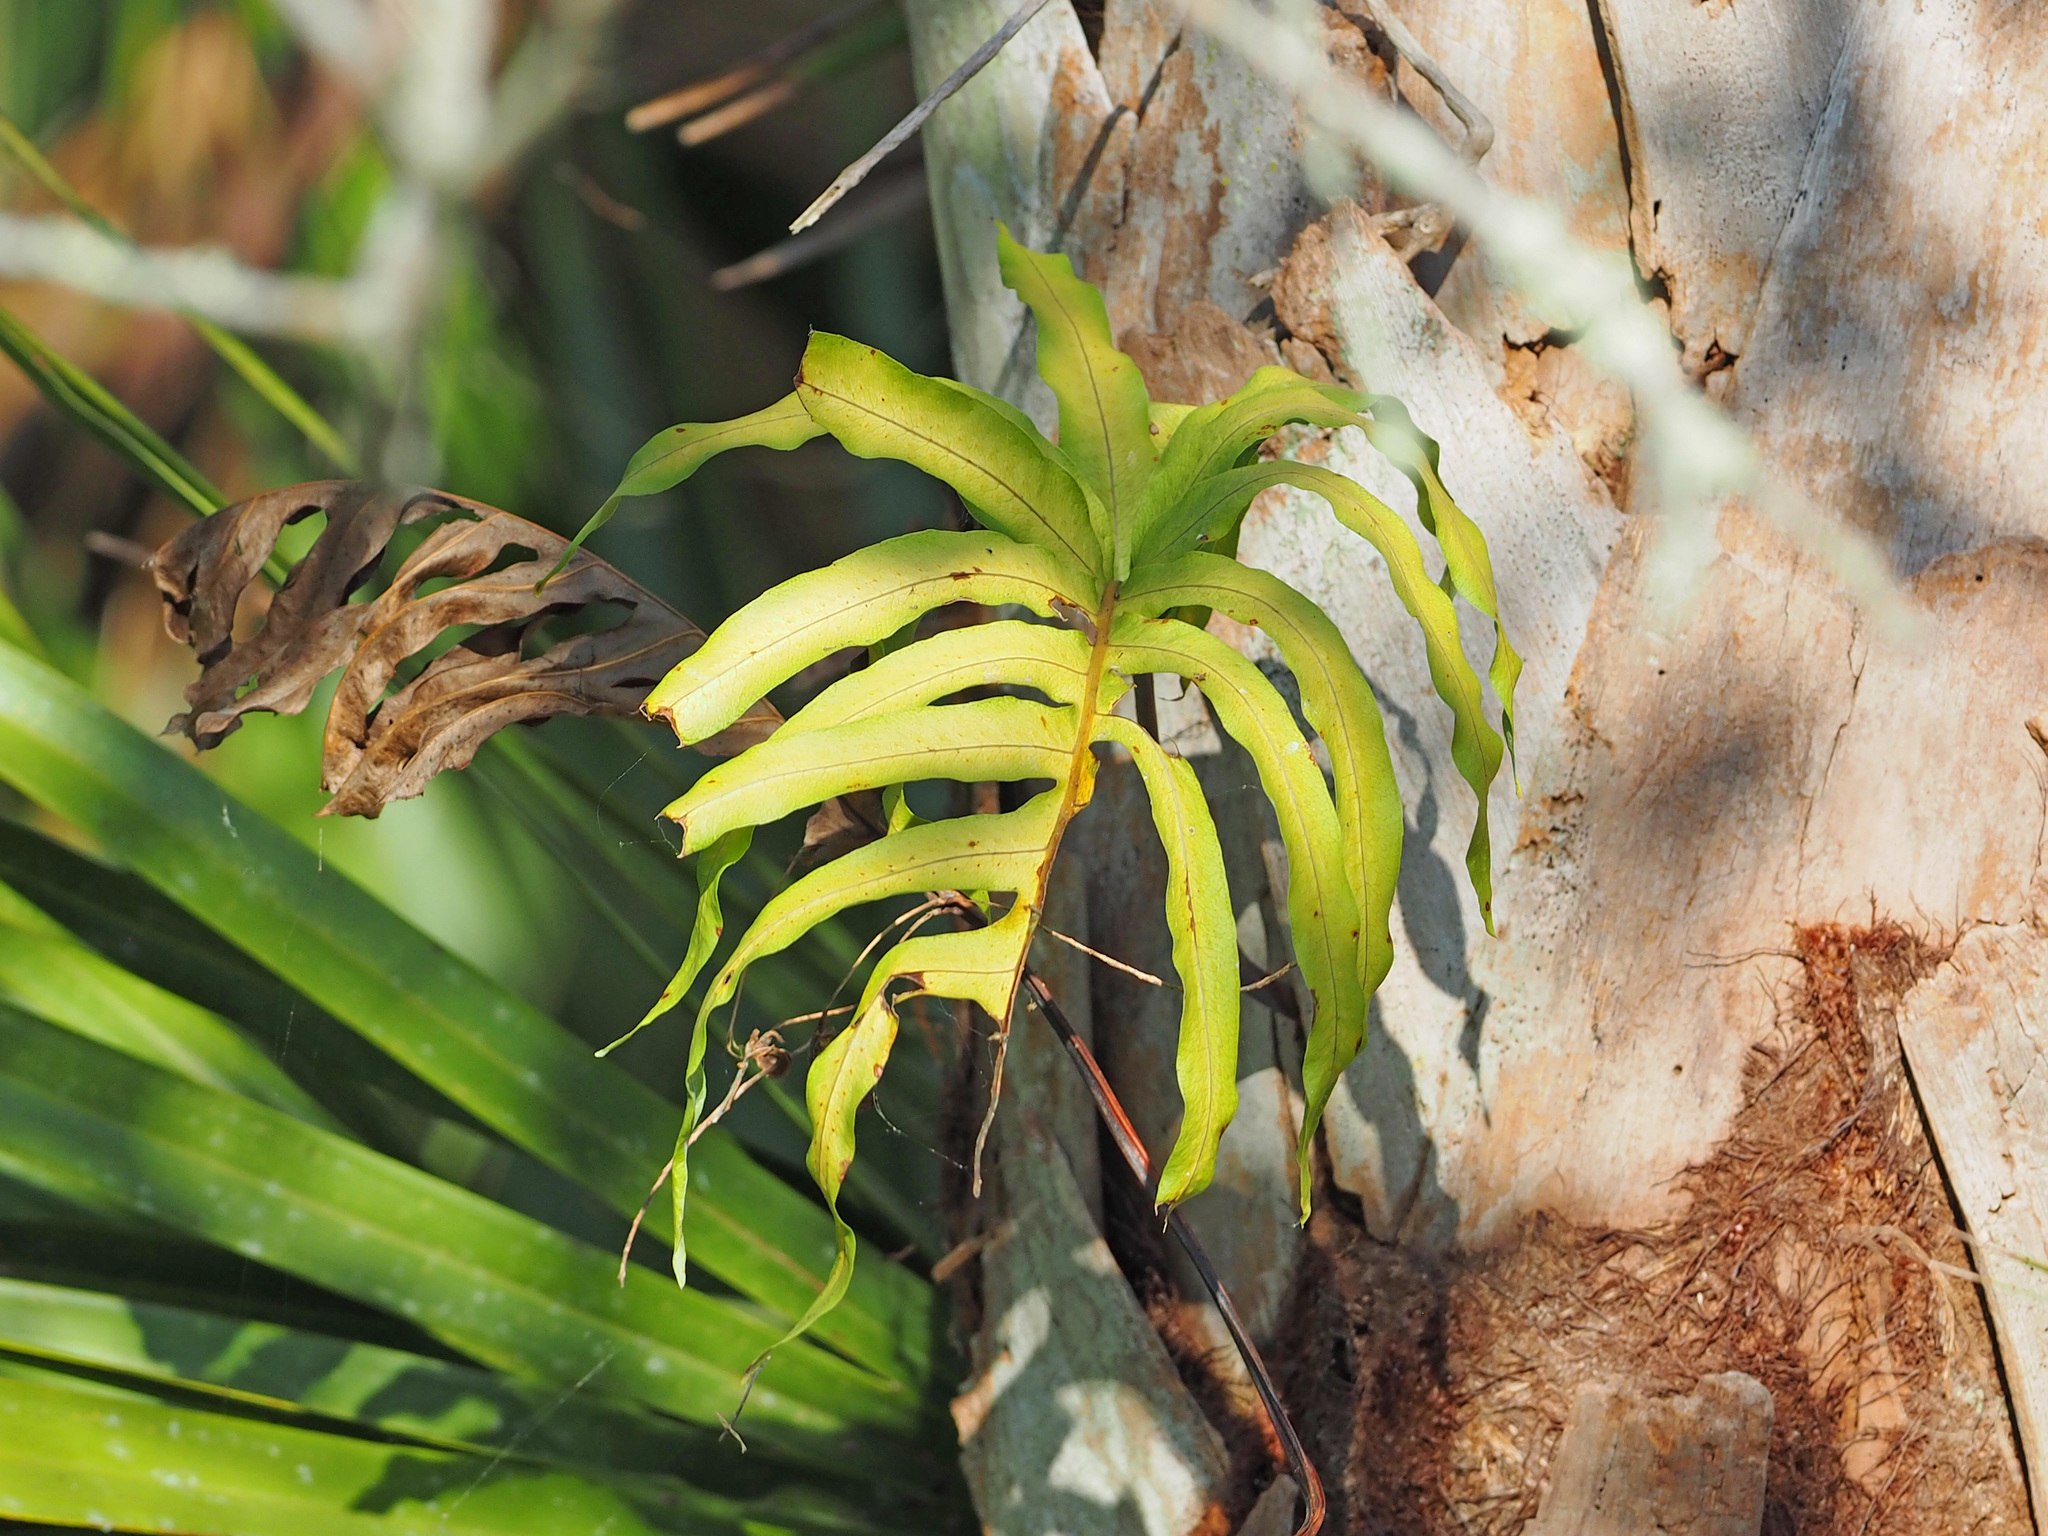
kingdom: Plantae
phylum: Tracheophyta
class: Polypodiopsida
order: Polypodiales
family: Polypodiaceae
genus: Phlebodium
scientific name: Phlebodium aureum
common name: Gold-foot fern
